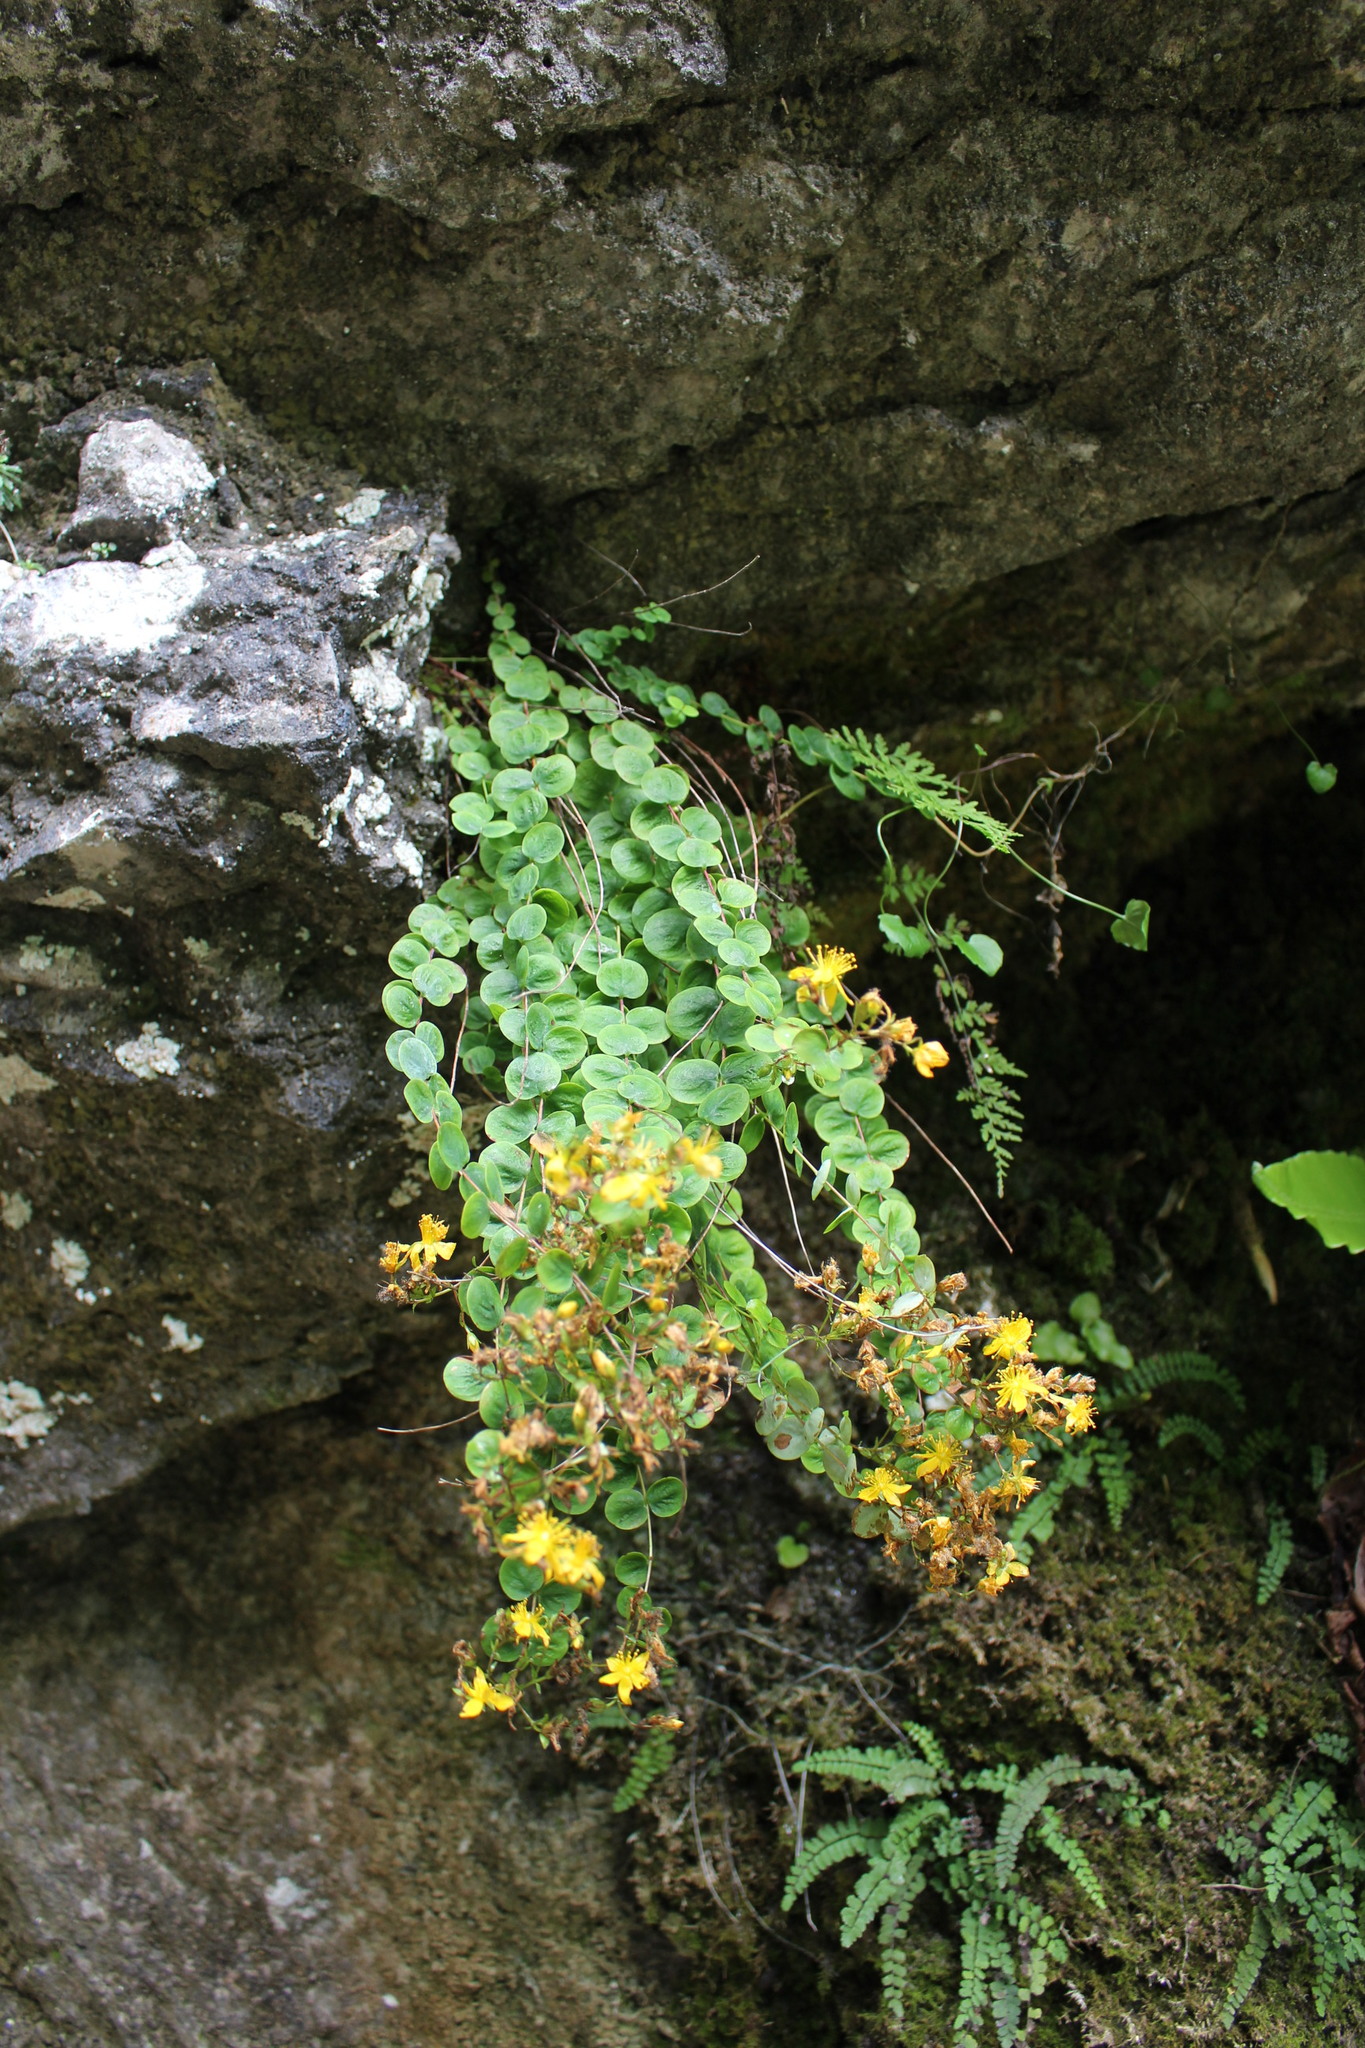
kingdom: Plantae
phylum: Tracheophyta
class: Magnoliopsida
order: Malpighiales
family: Hypericaceae
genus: Hypericum
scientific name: Hypericum nummularium
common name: Round-leaved st john's-wort
